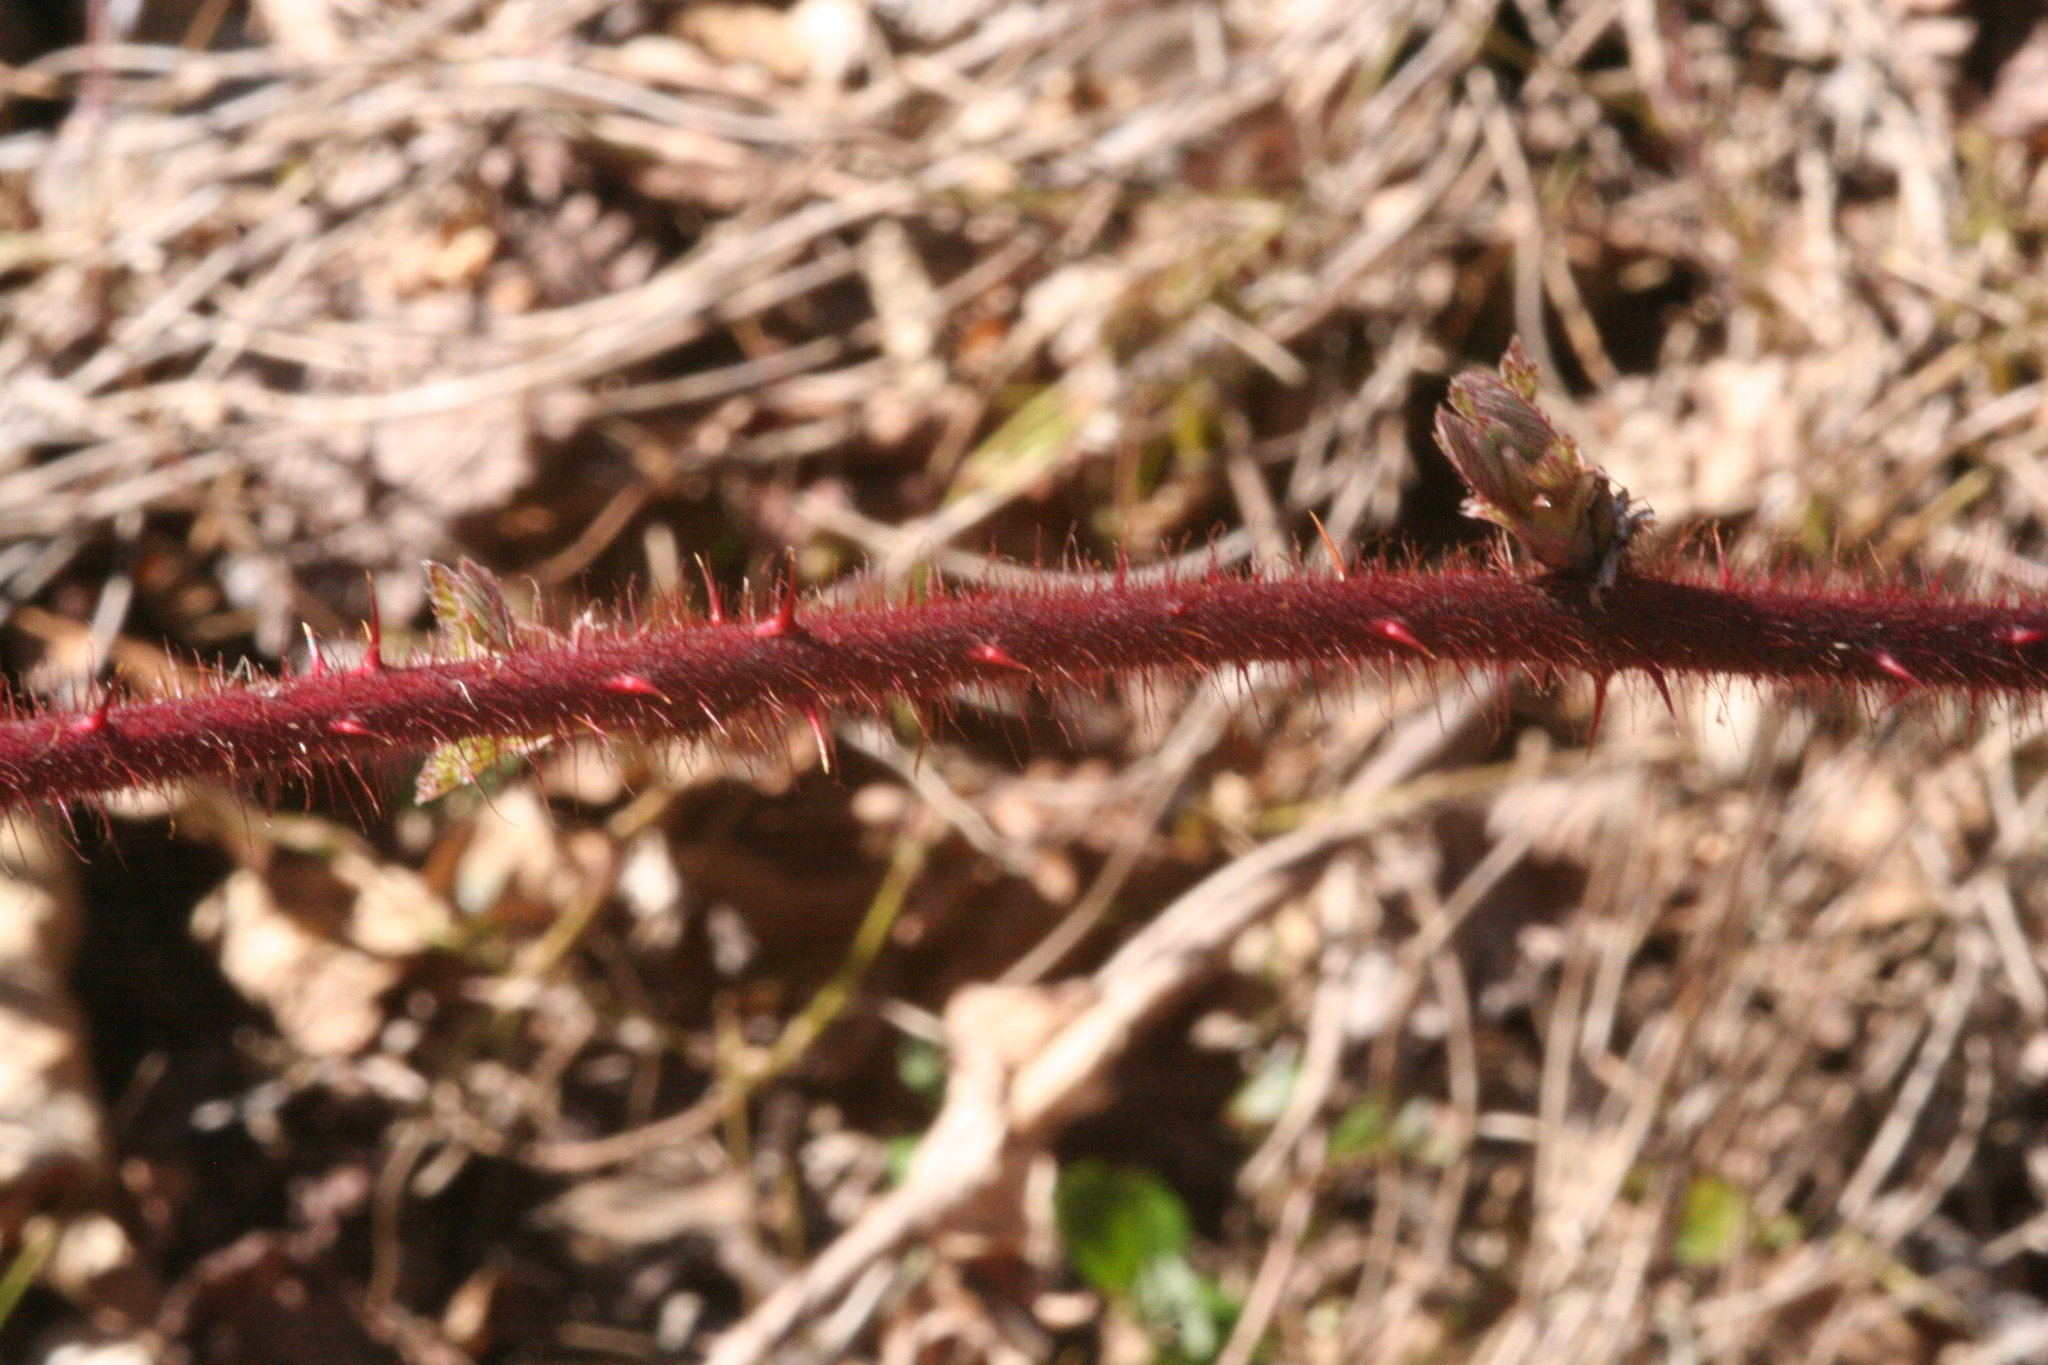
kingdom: Plantae
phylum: Tracheophyta
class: Magnoliopsida
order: Rosales
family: Rosaceae
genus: Rubus
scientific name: Rubus phoenicolasius
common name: Japanese wineberry
